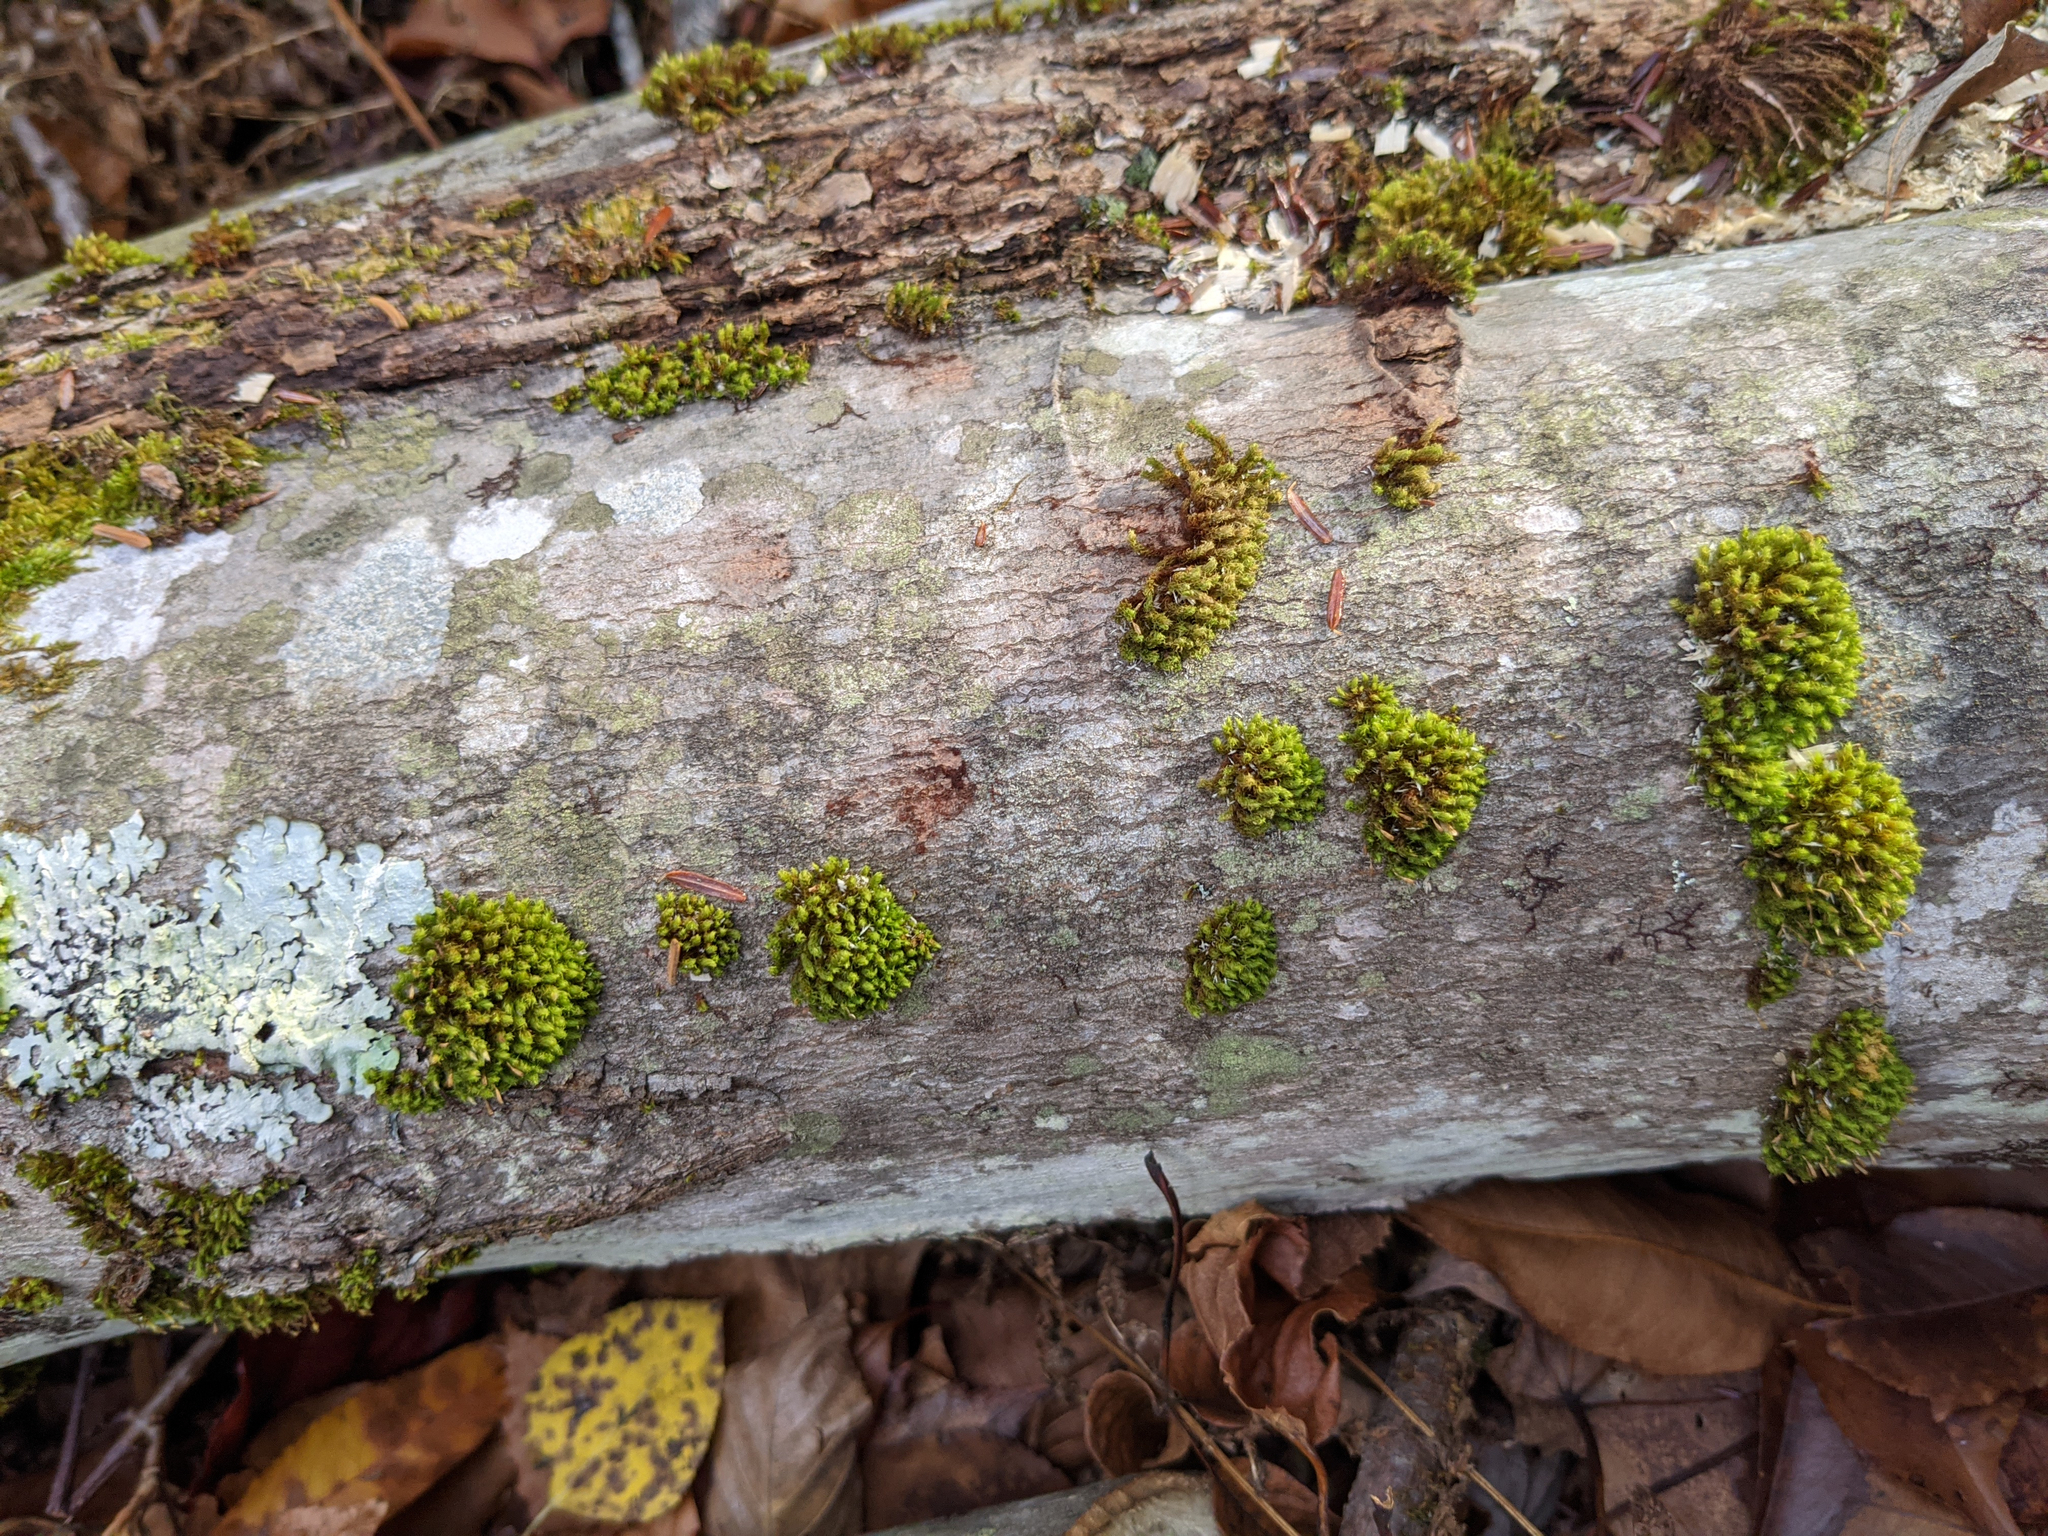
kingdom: Plantae
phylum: Bryophyta
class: Bryopsida
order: Orthotrichales
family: Orthotrichaceae
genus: Ulota
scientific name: Ulota crispa
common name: Crisped pincushion moss
